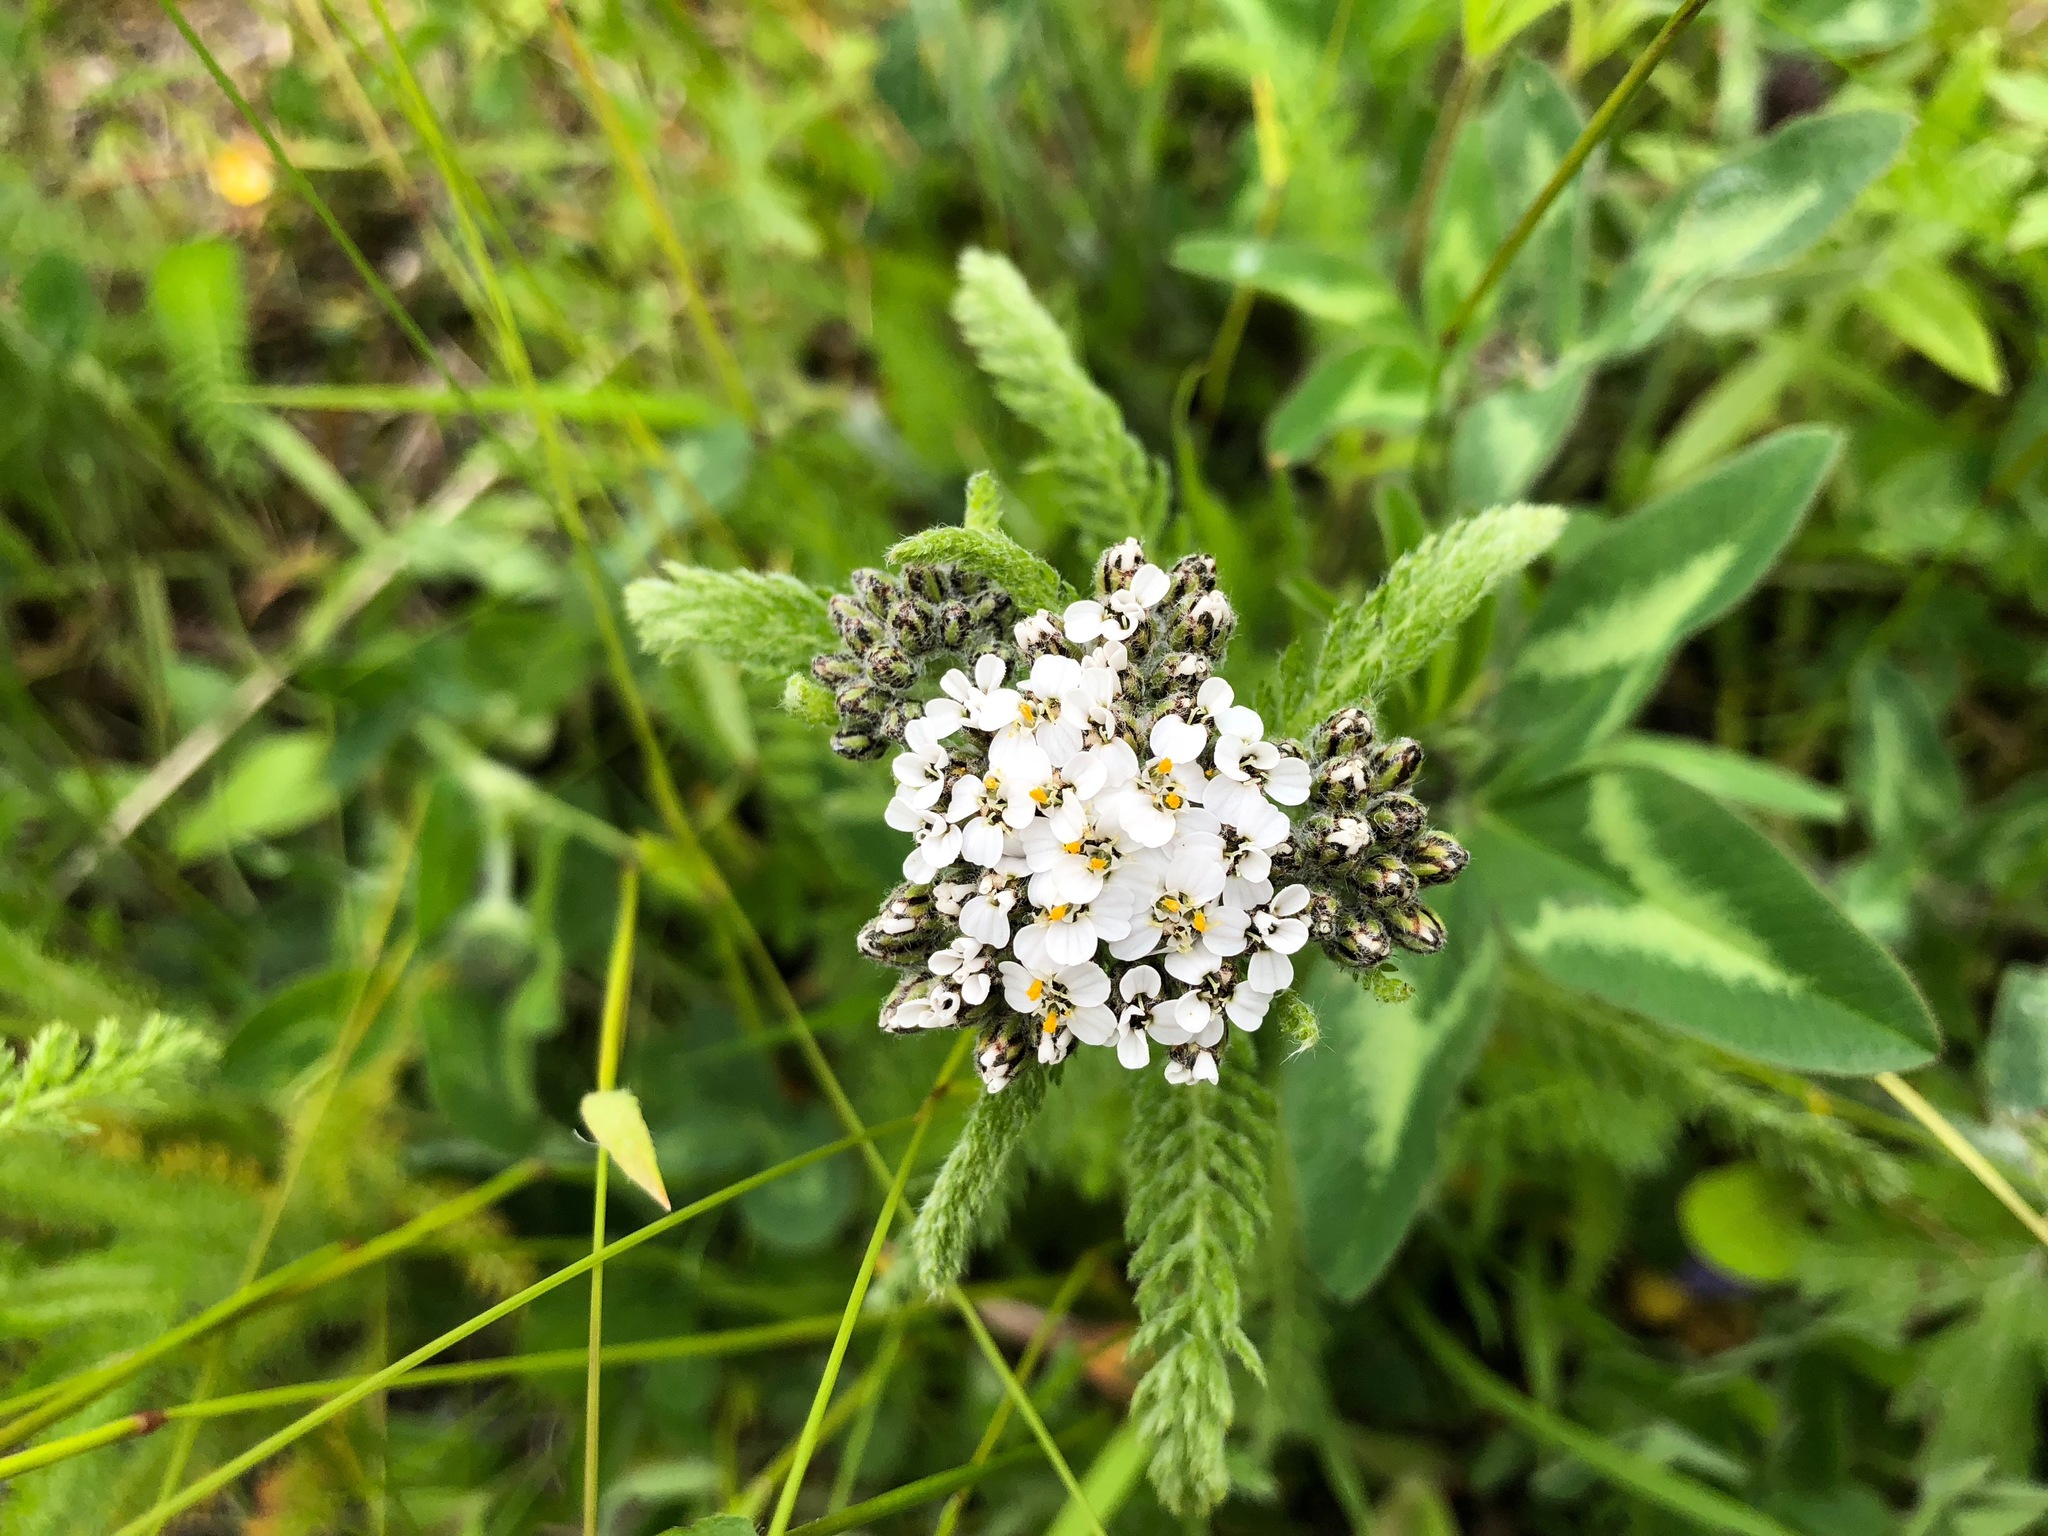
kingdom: Plantae
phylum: Tracheophyta
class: Magnoliopsida
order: Asterales
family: Asteraceae
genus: Achillea
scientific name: Achillea millefolium
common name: Yarrow
